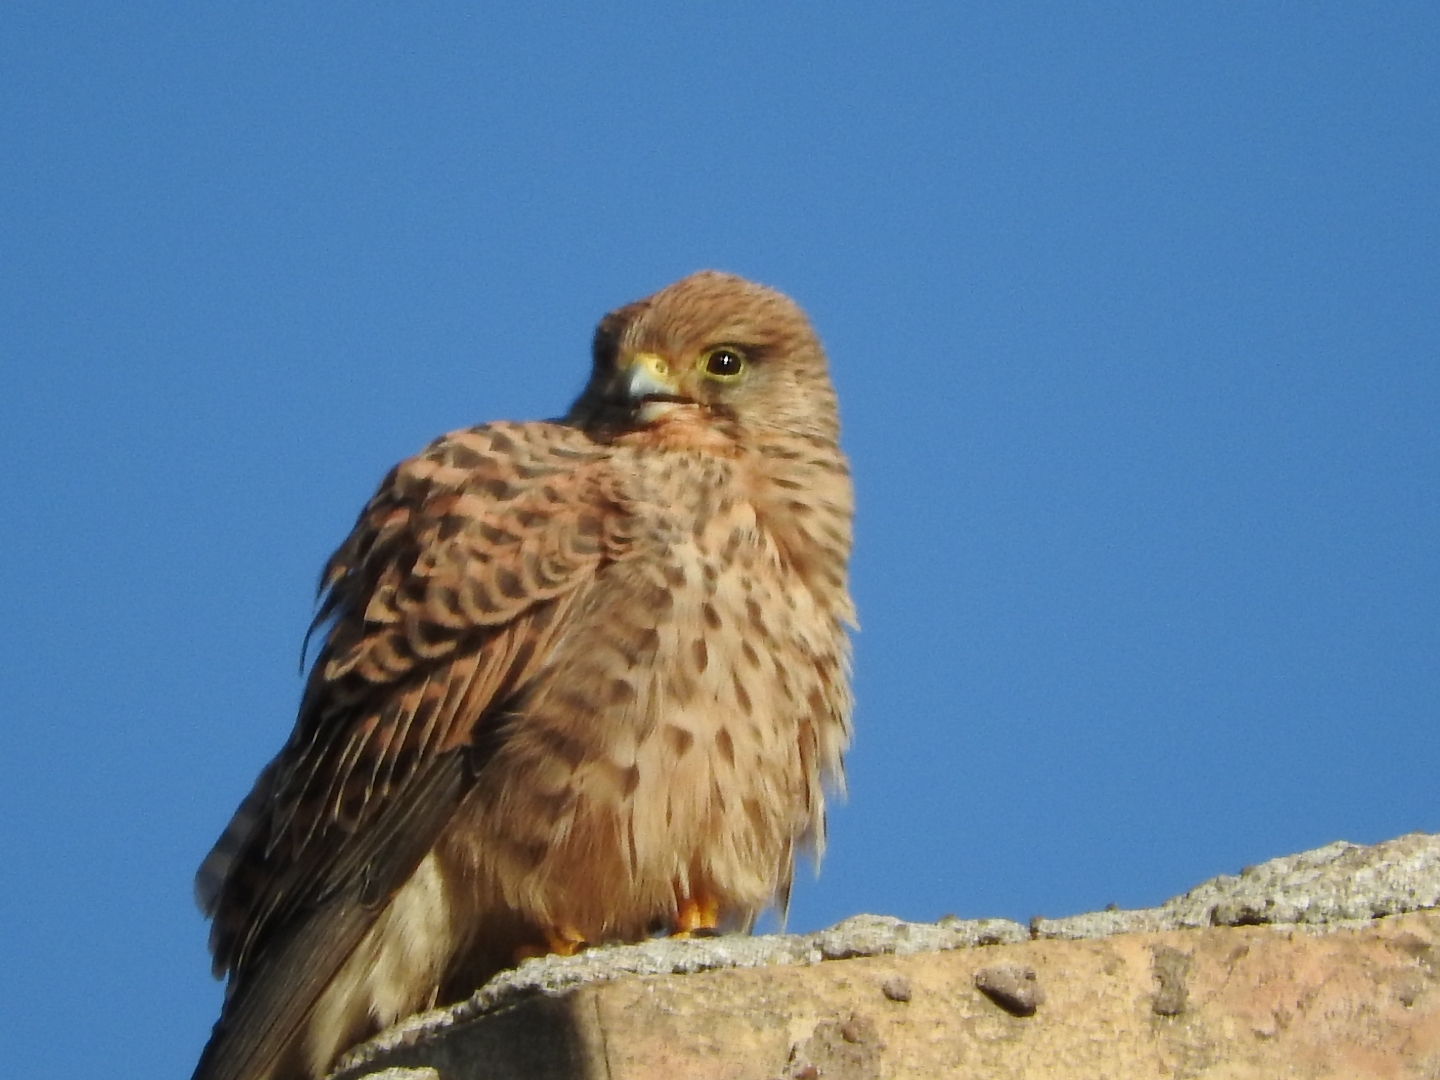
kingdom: Animalia
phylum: Chordata
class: Aves
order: Falconiformes
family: Falconidae
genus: Falco
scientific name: Falco tinnunculus
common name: Common kestrel
